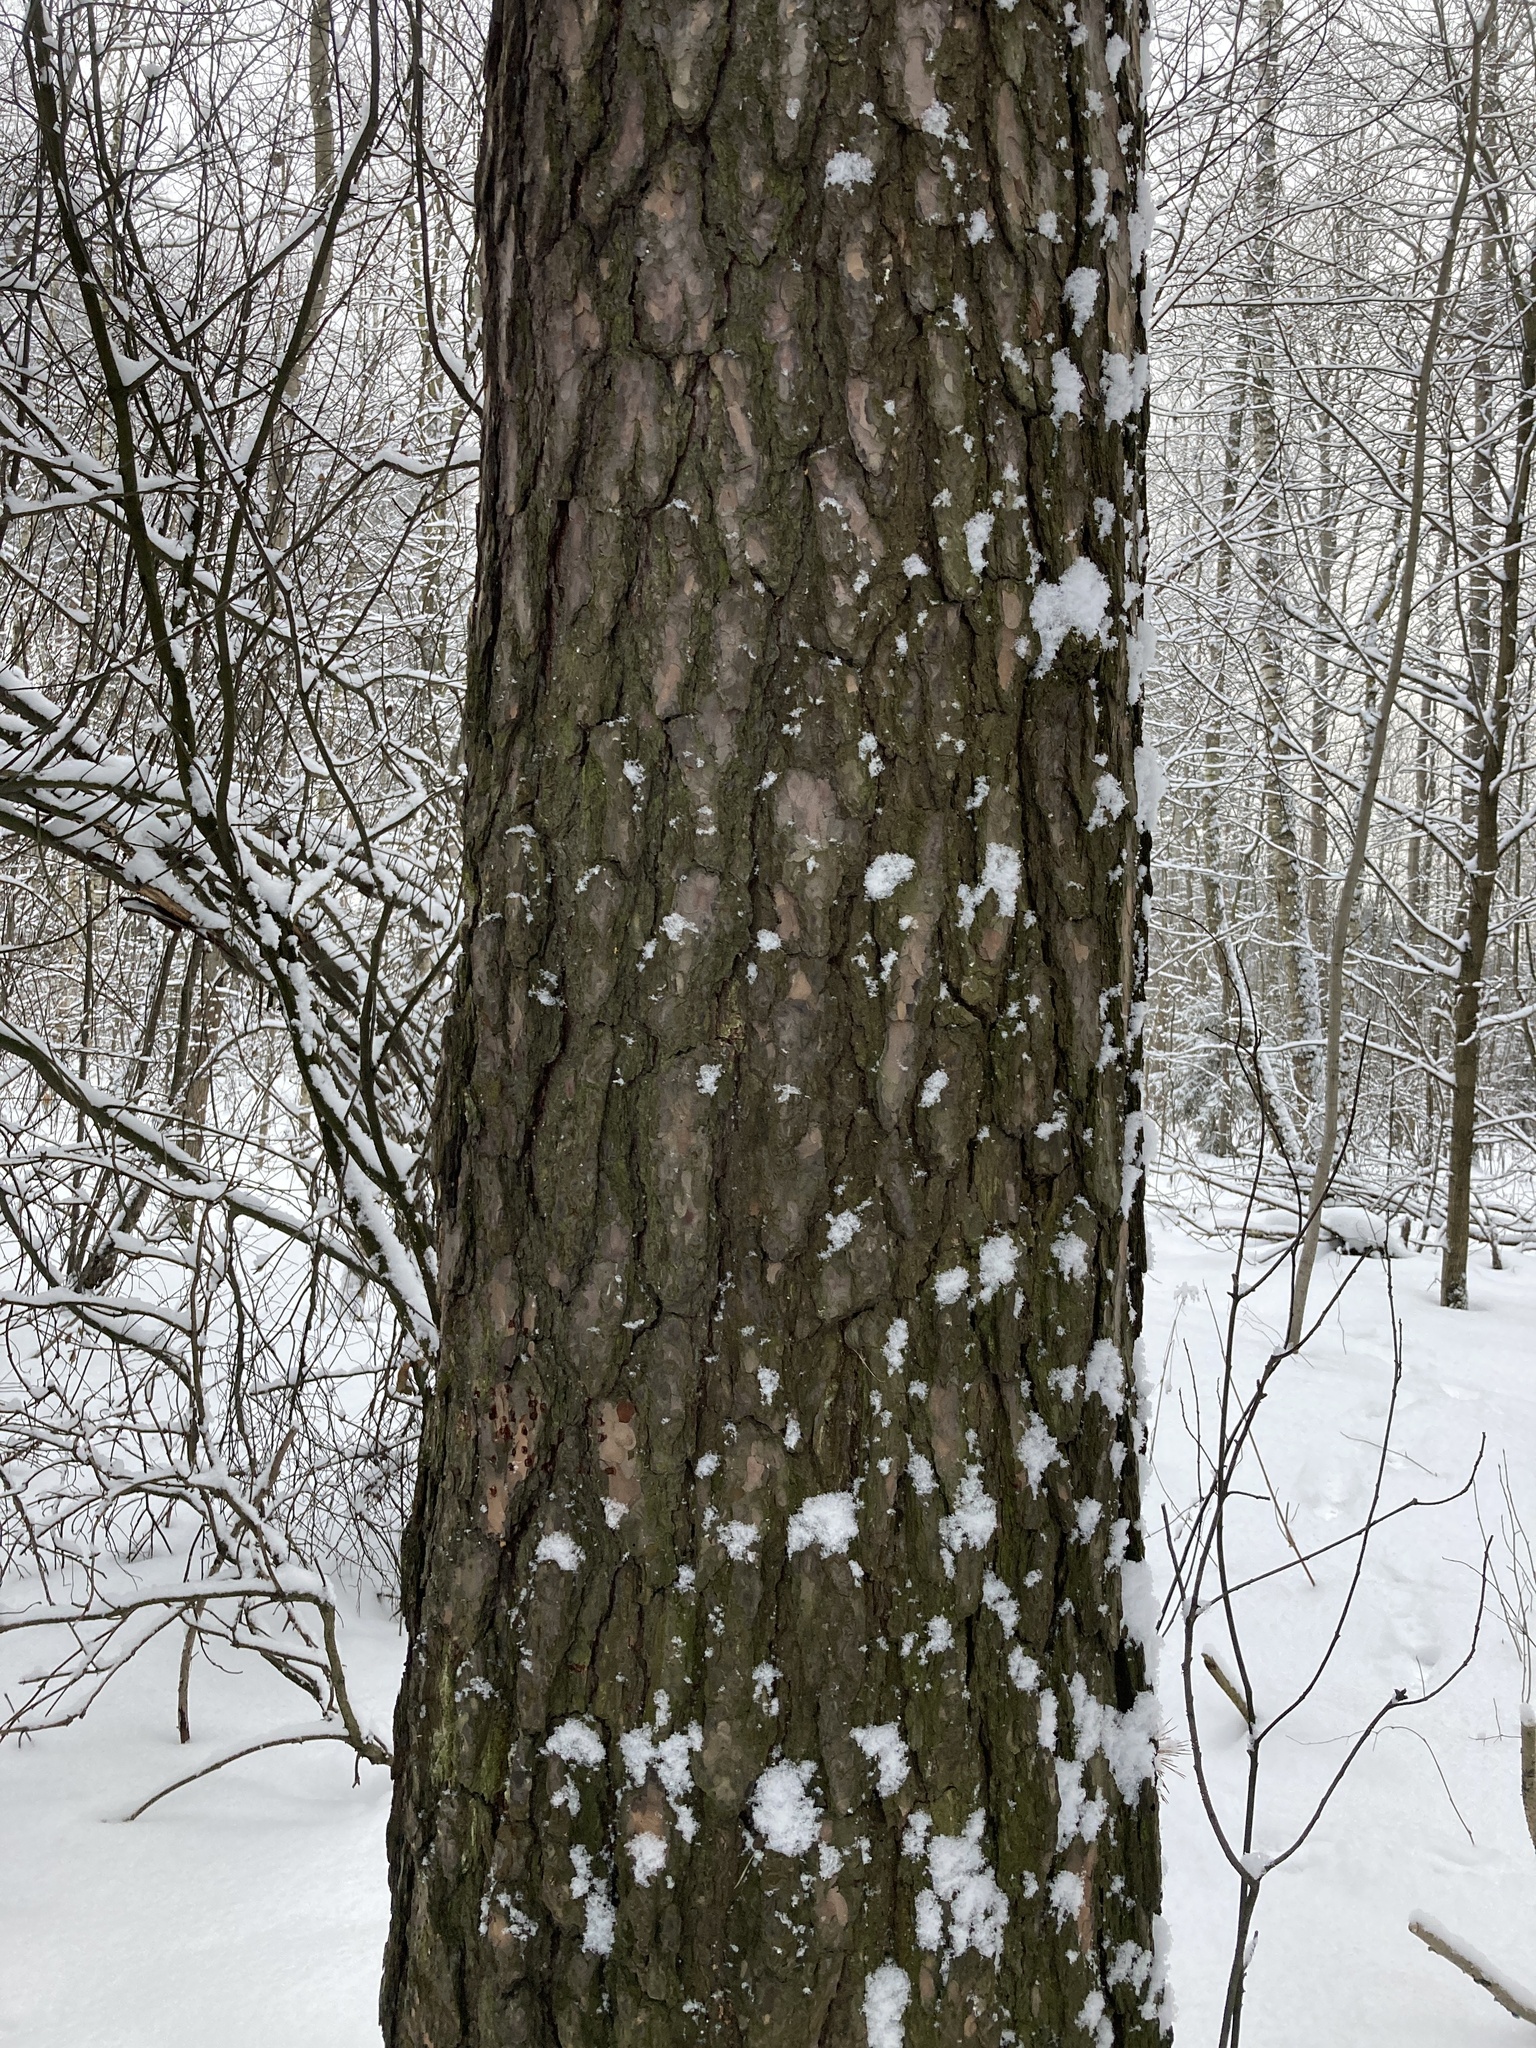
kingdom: Plantae
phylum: Tracheophyta
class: Pinopsida
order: Pinales
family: Pinaceae
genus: Pinus
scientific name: Pinus sylvestris
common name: Scots pine
